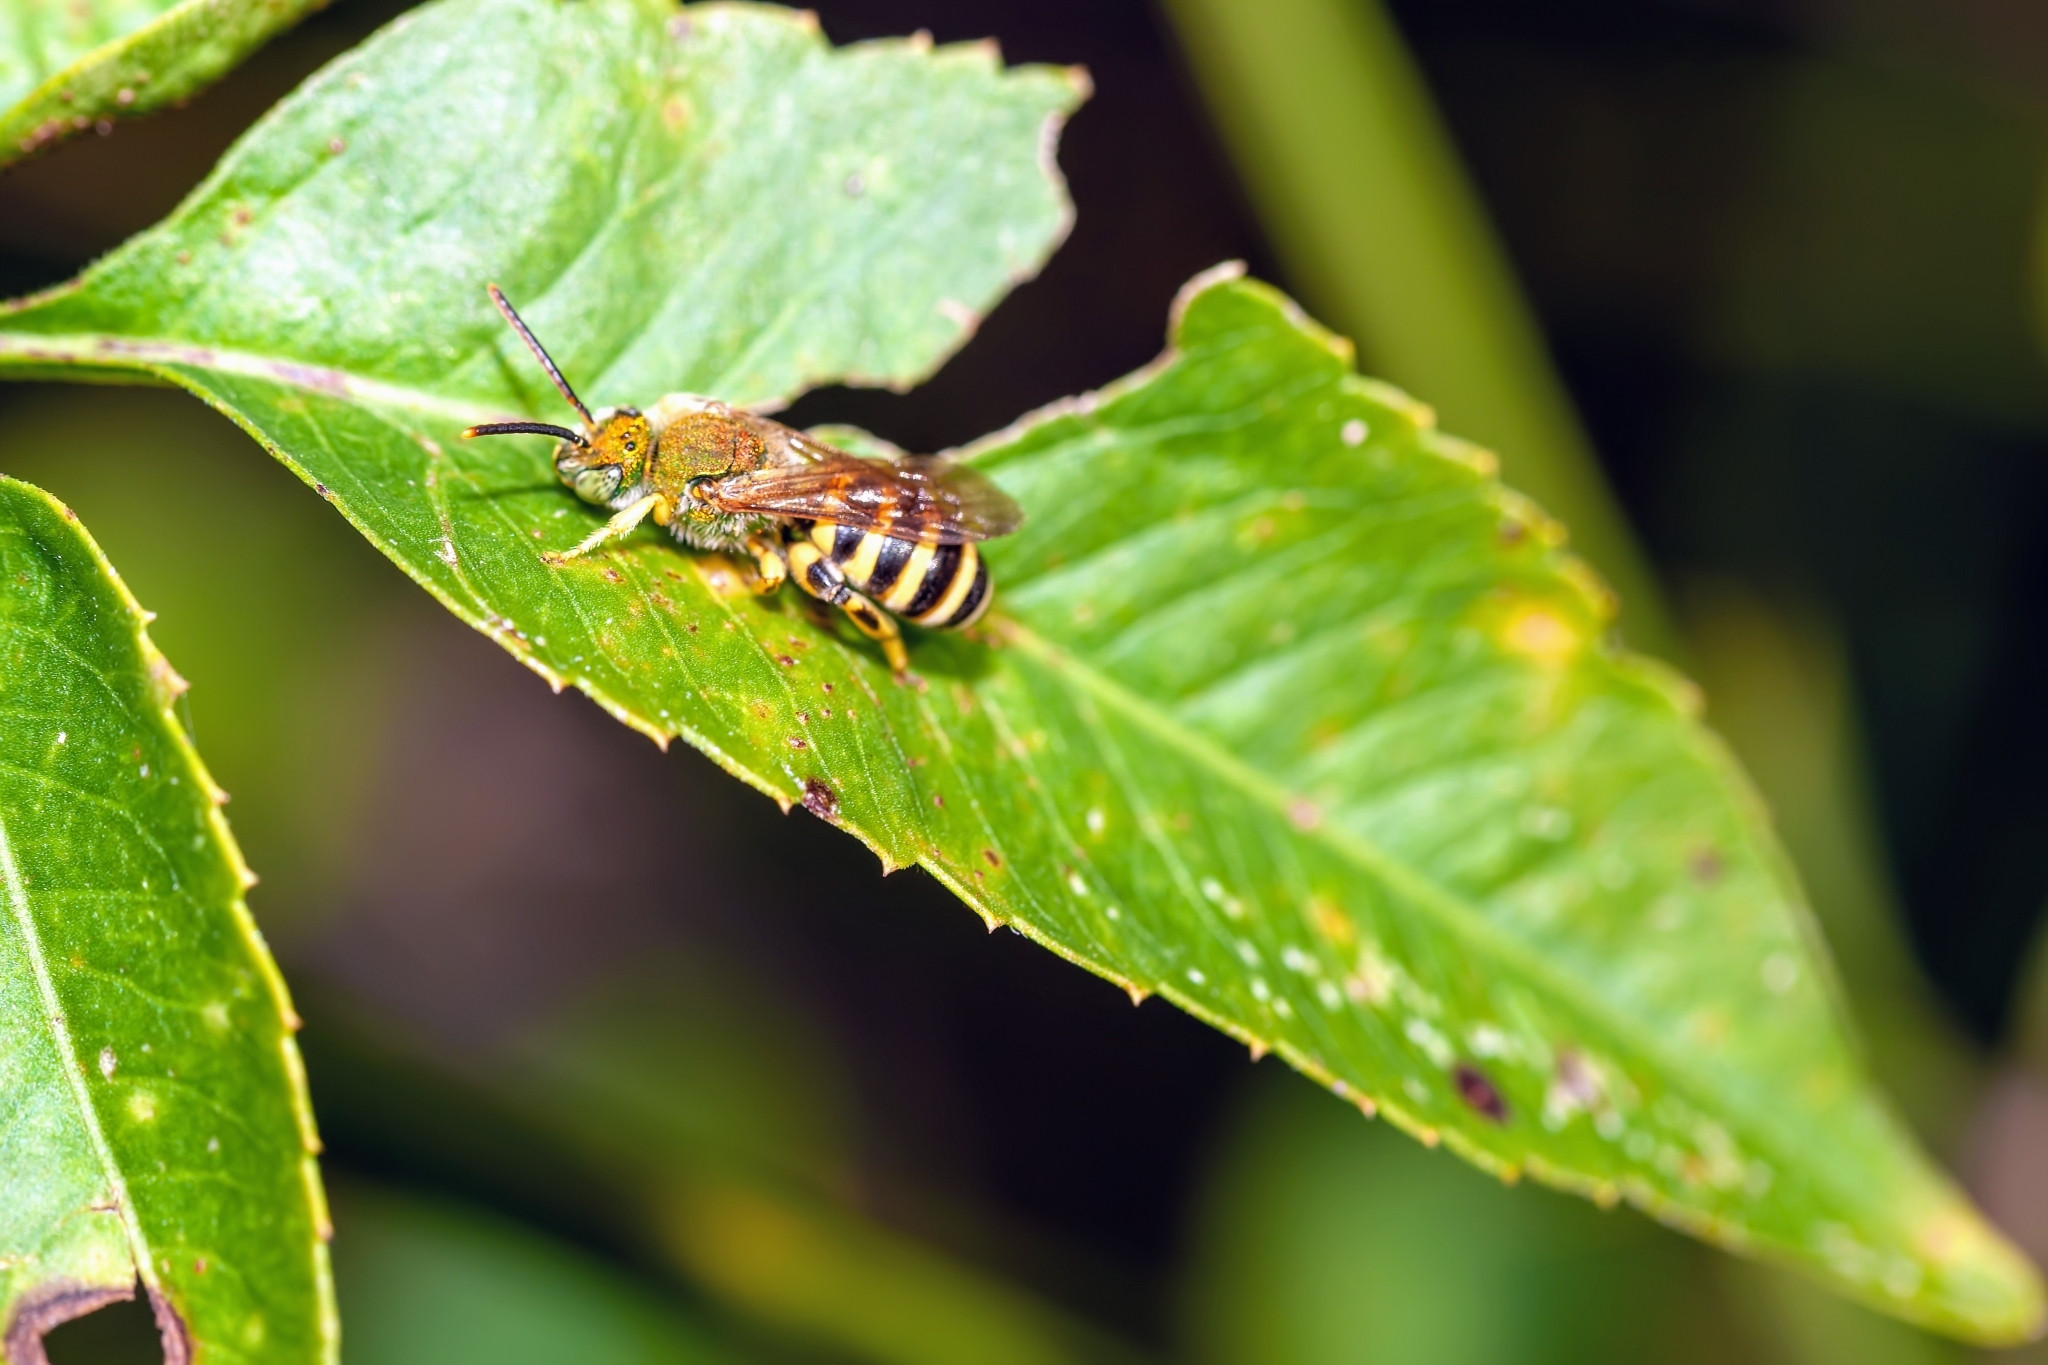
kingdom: Animalia
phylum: Arthropoda
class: Insecta
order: Hymenoptera
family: Halictidae
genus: Agapostemon
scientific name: Agapostemon splendens
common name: Brown-winged striped sweat bee
